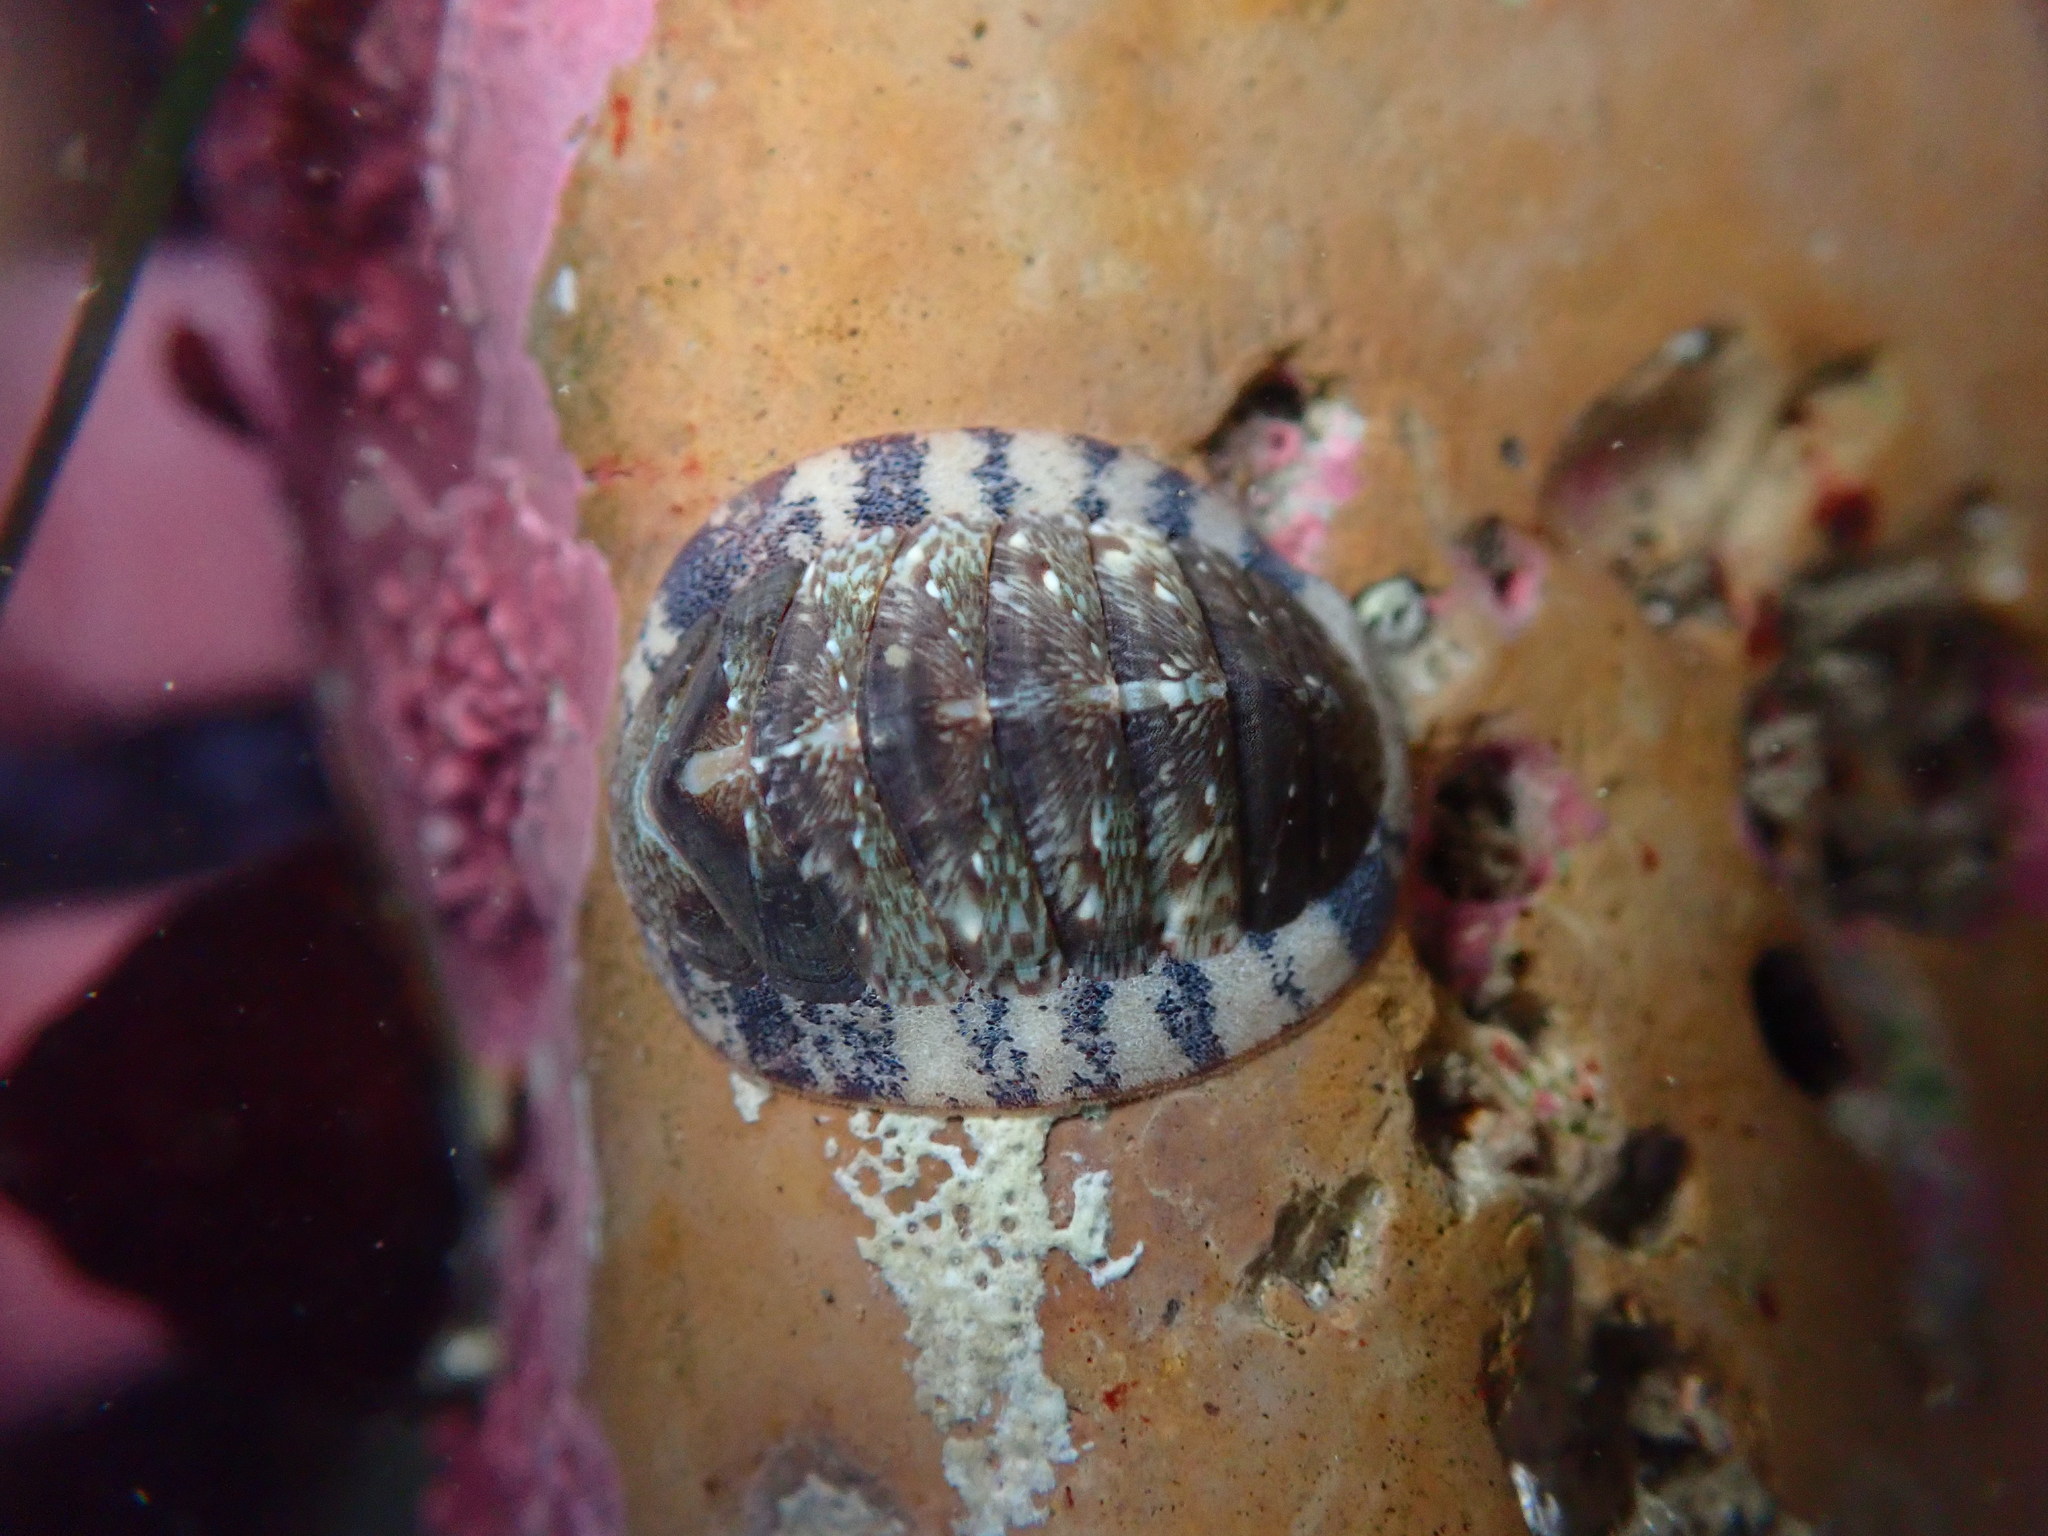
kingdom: Animalia
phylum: Mollusca
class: Polyplacophora
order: Chitonida
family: Ischnochitonidae
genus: Lepidozona
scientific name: Lepidozona radians
